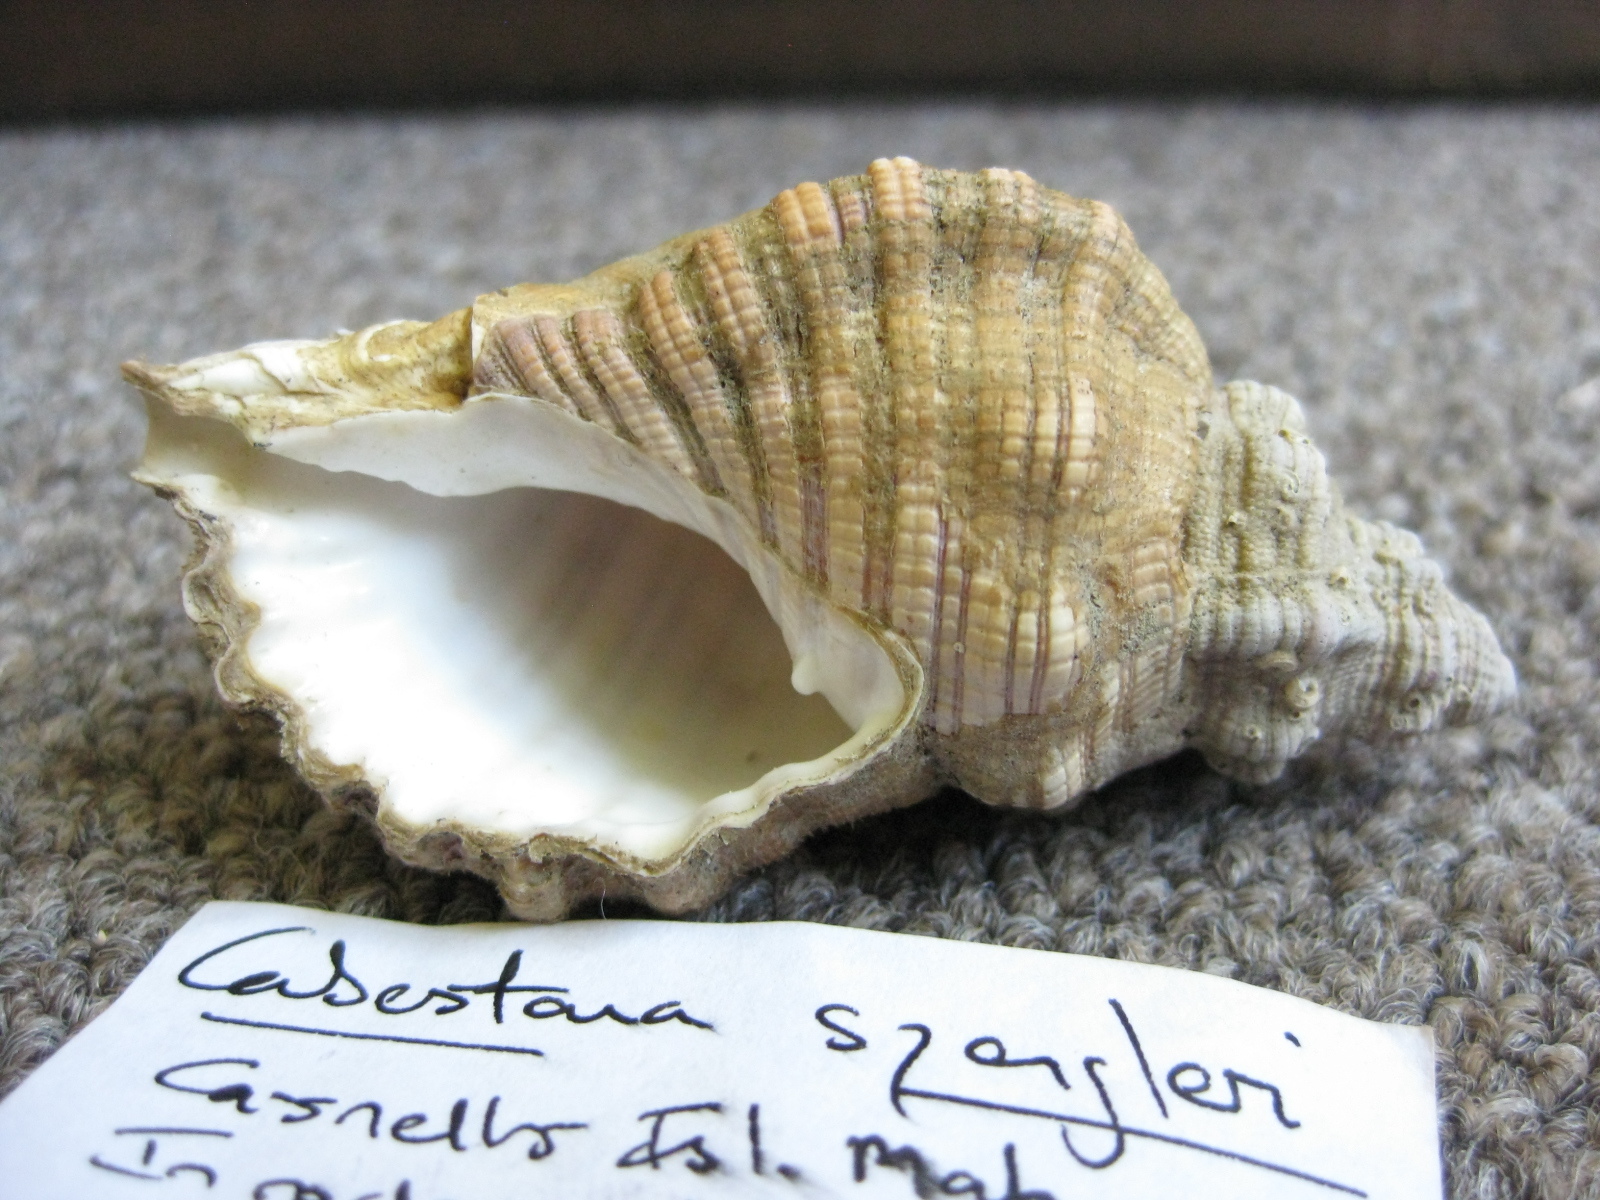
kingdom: Animalia
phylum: Mollusca
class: Gastropoda
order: Littorinimorpha
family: Cymatiidae
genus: Cabestana
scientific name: Cabestana spengleri
